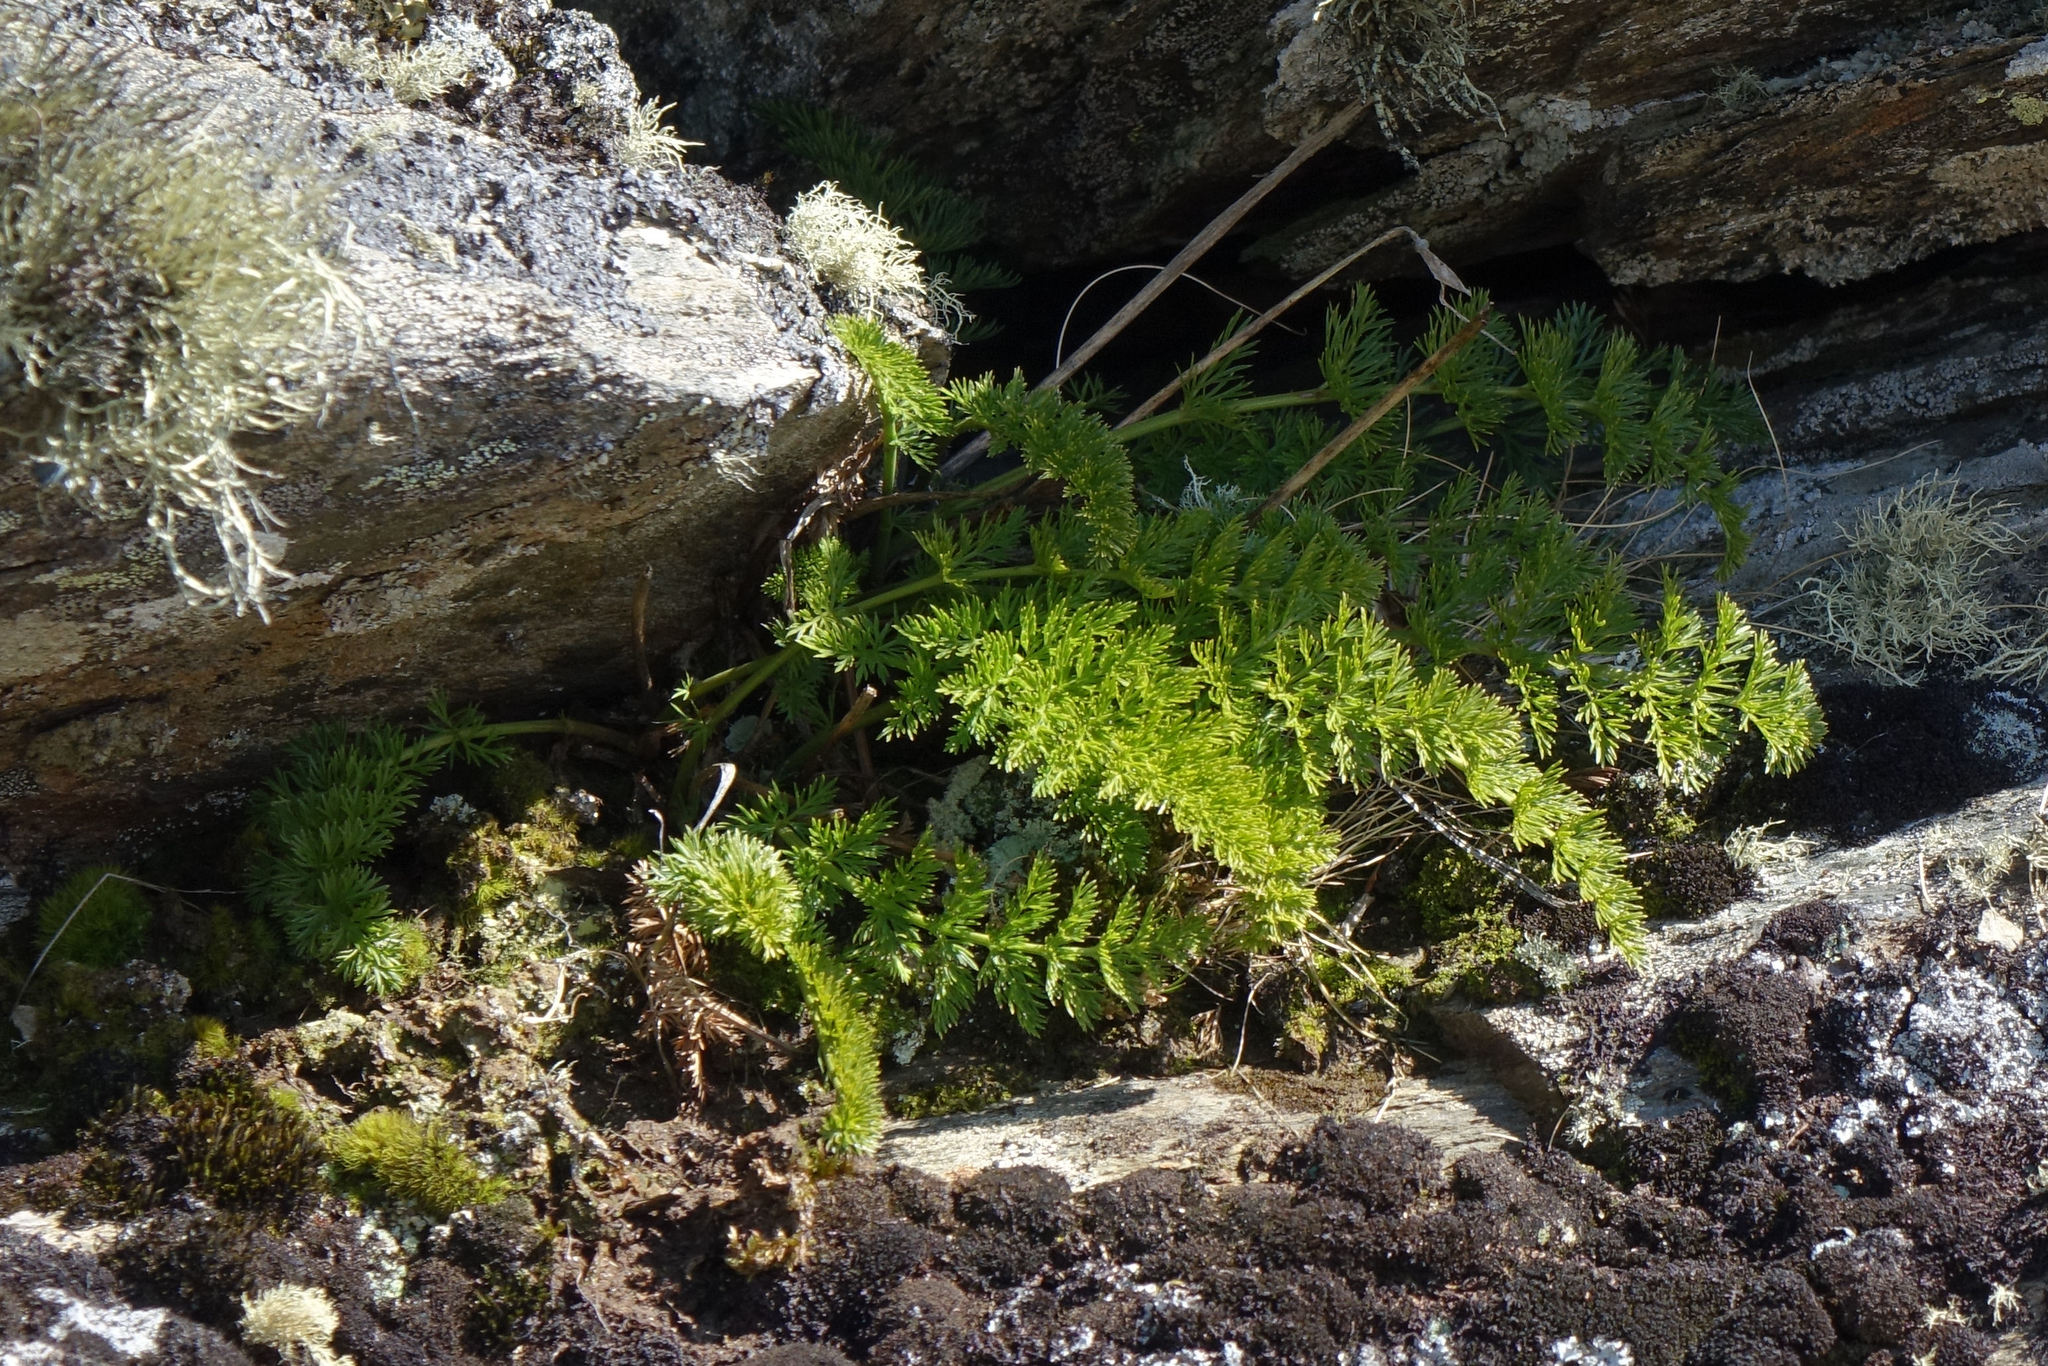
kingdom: Plantae
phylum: Tracheophyta
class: Magnoliopsida
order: Apiales
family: Apiaceae
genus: Anisotome
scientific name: Anisotome haastii
